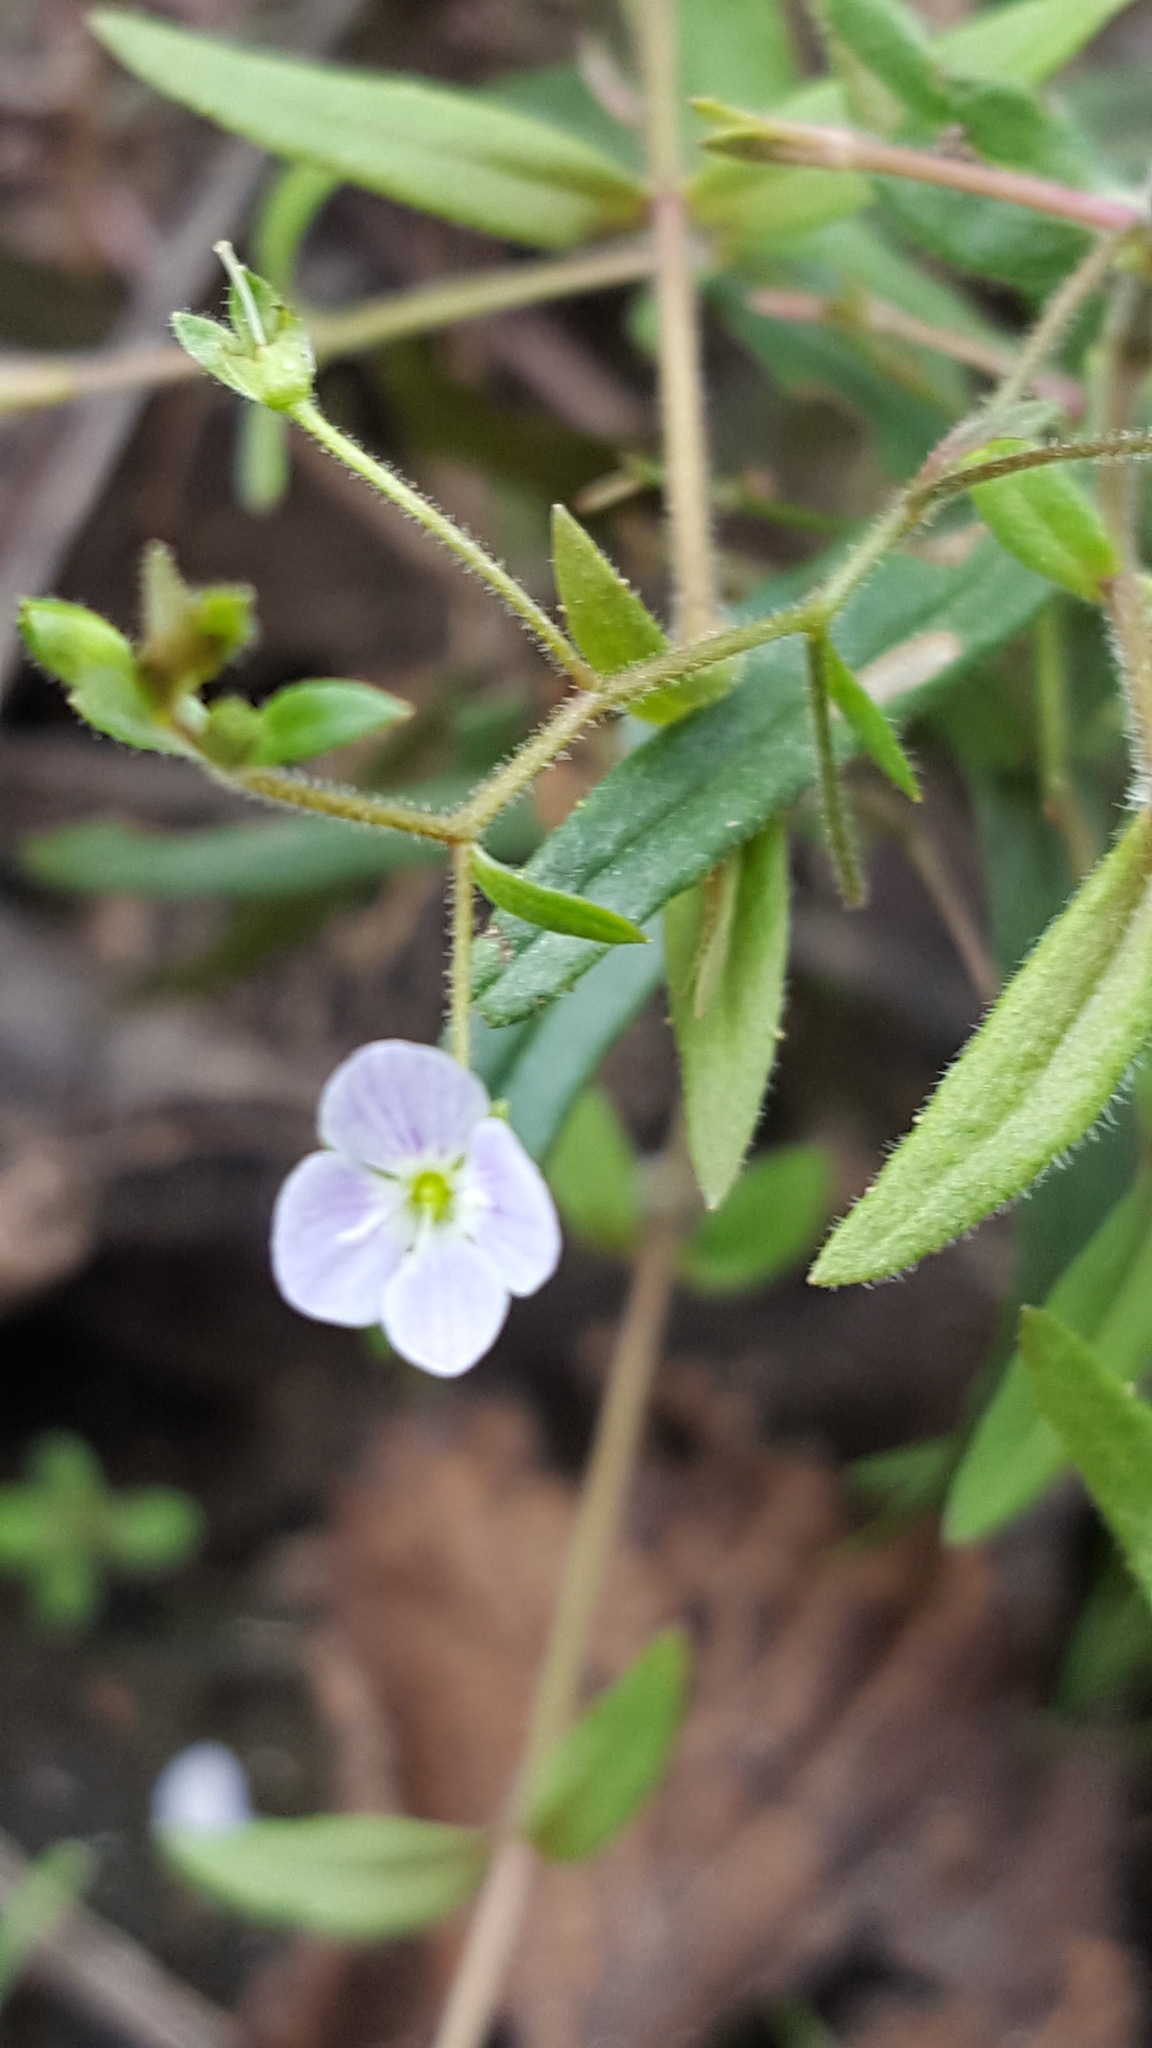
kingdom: Plantae
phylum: Tracheophyta
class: Magnoliopsida
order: Lamiales
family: Plantaginaceae
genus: Veronica
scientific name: Veronica scutellata
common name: Marsh speedwell
